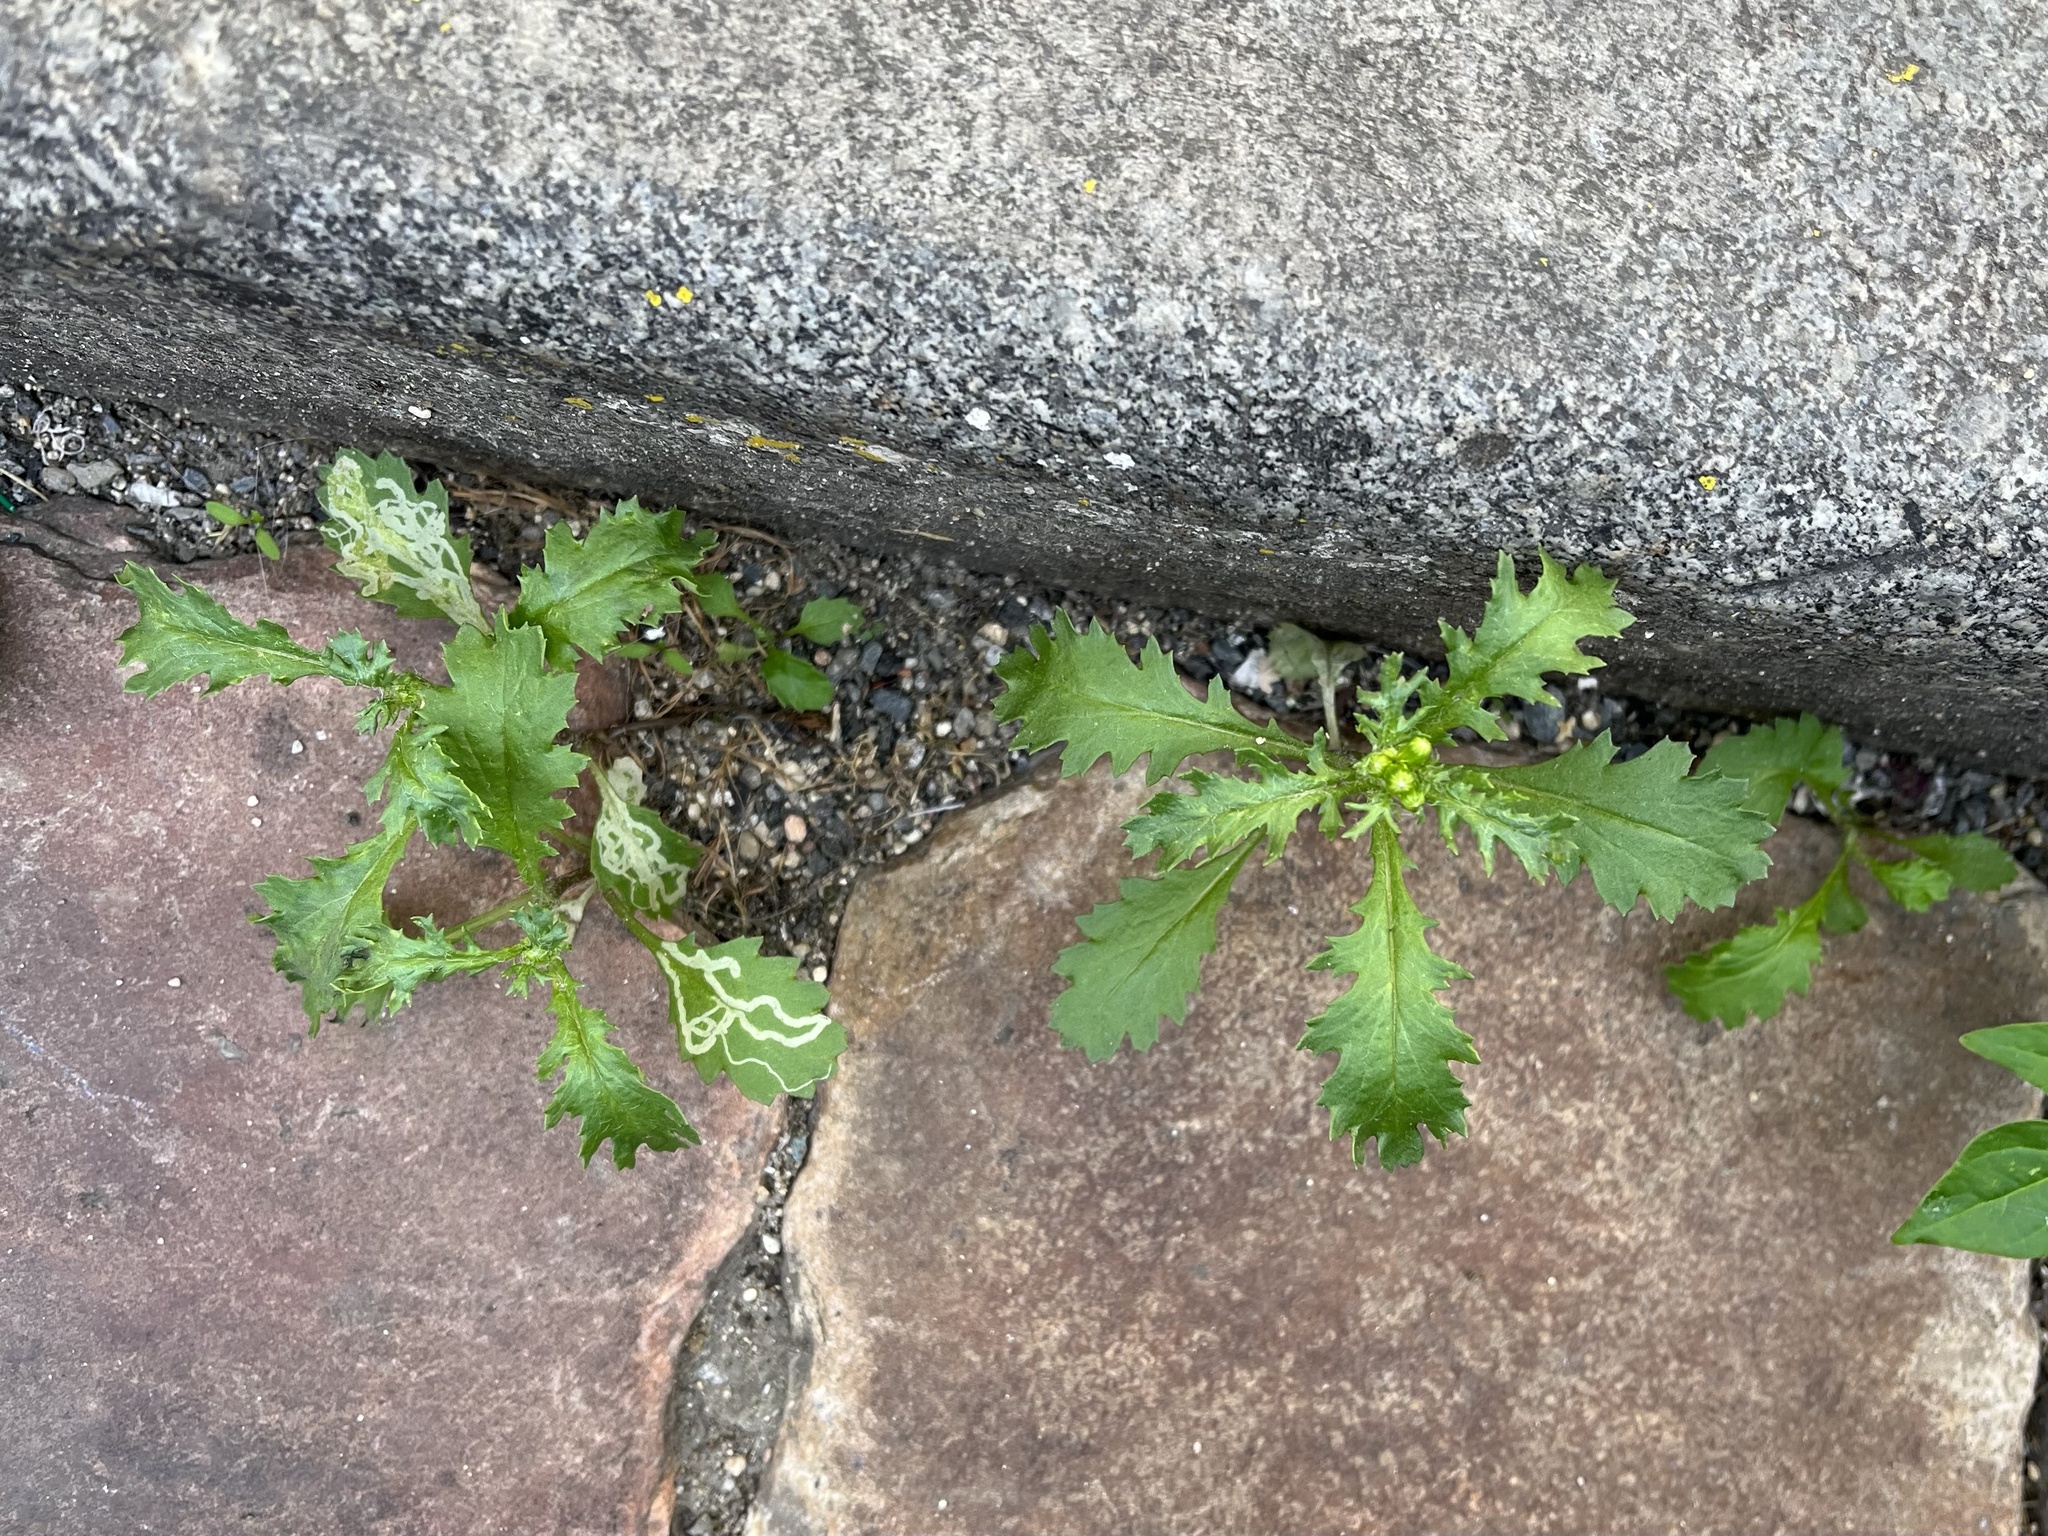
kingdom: Plantae
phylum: Tracheophyta
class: Magnoliopsida
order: Asterales
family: Asteraceae
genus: Senecio
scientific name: Senecio vulgaris
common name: Old-man-in-the-spring
